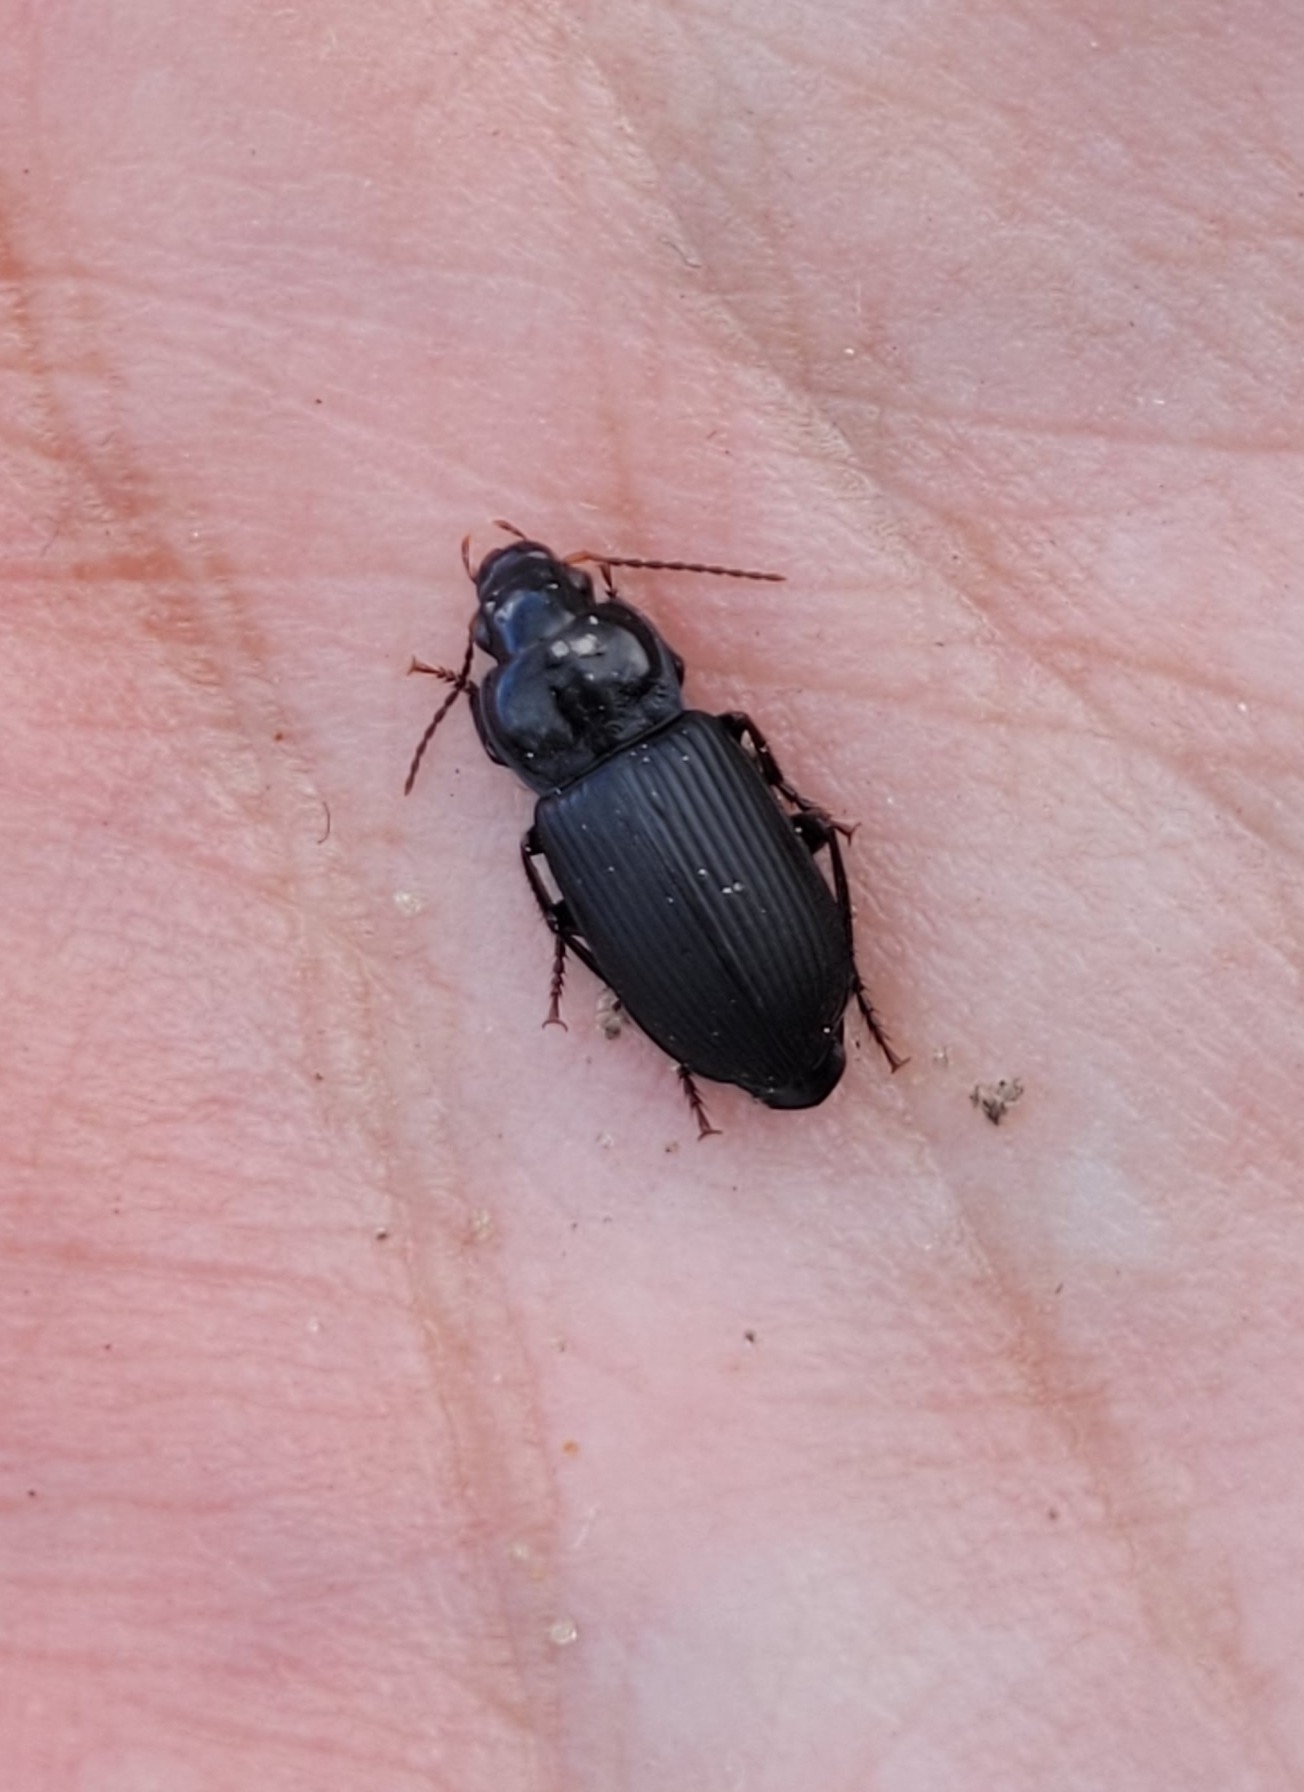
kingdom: Animalia
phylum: Arthropoda
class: Insecta
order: Coleoptera
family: Carabidae
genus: Anisodactylus
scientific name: Anisodactylus binotatus
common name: Two-marked harp ground beetle
